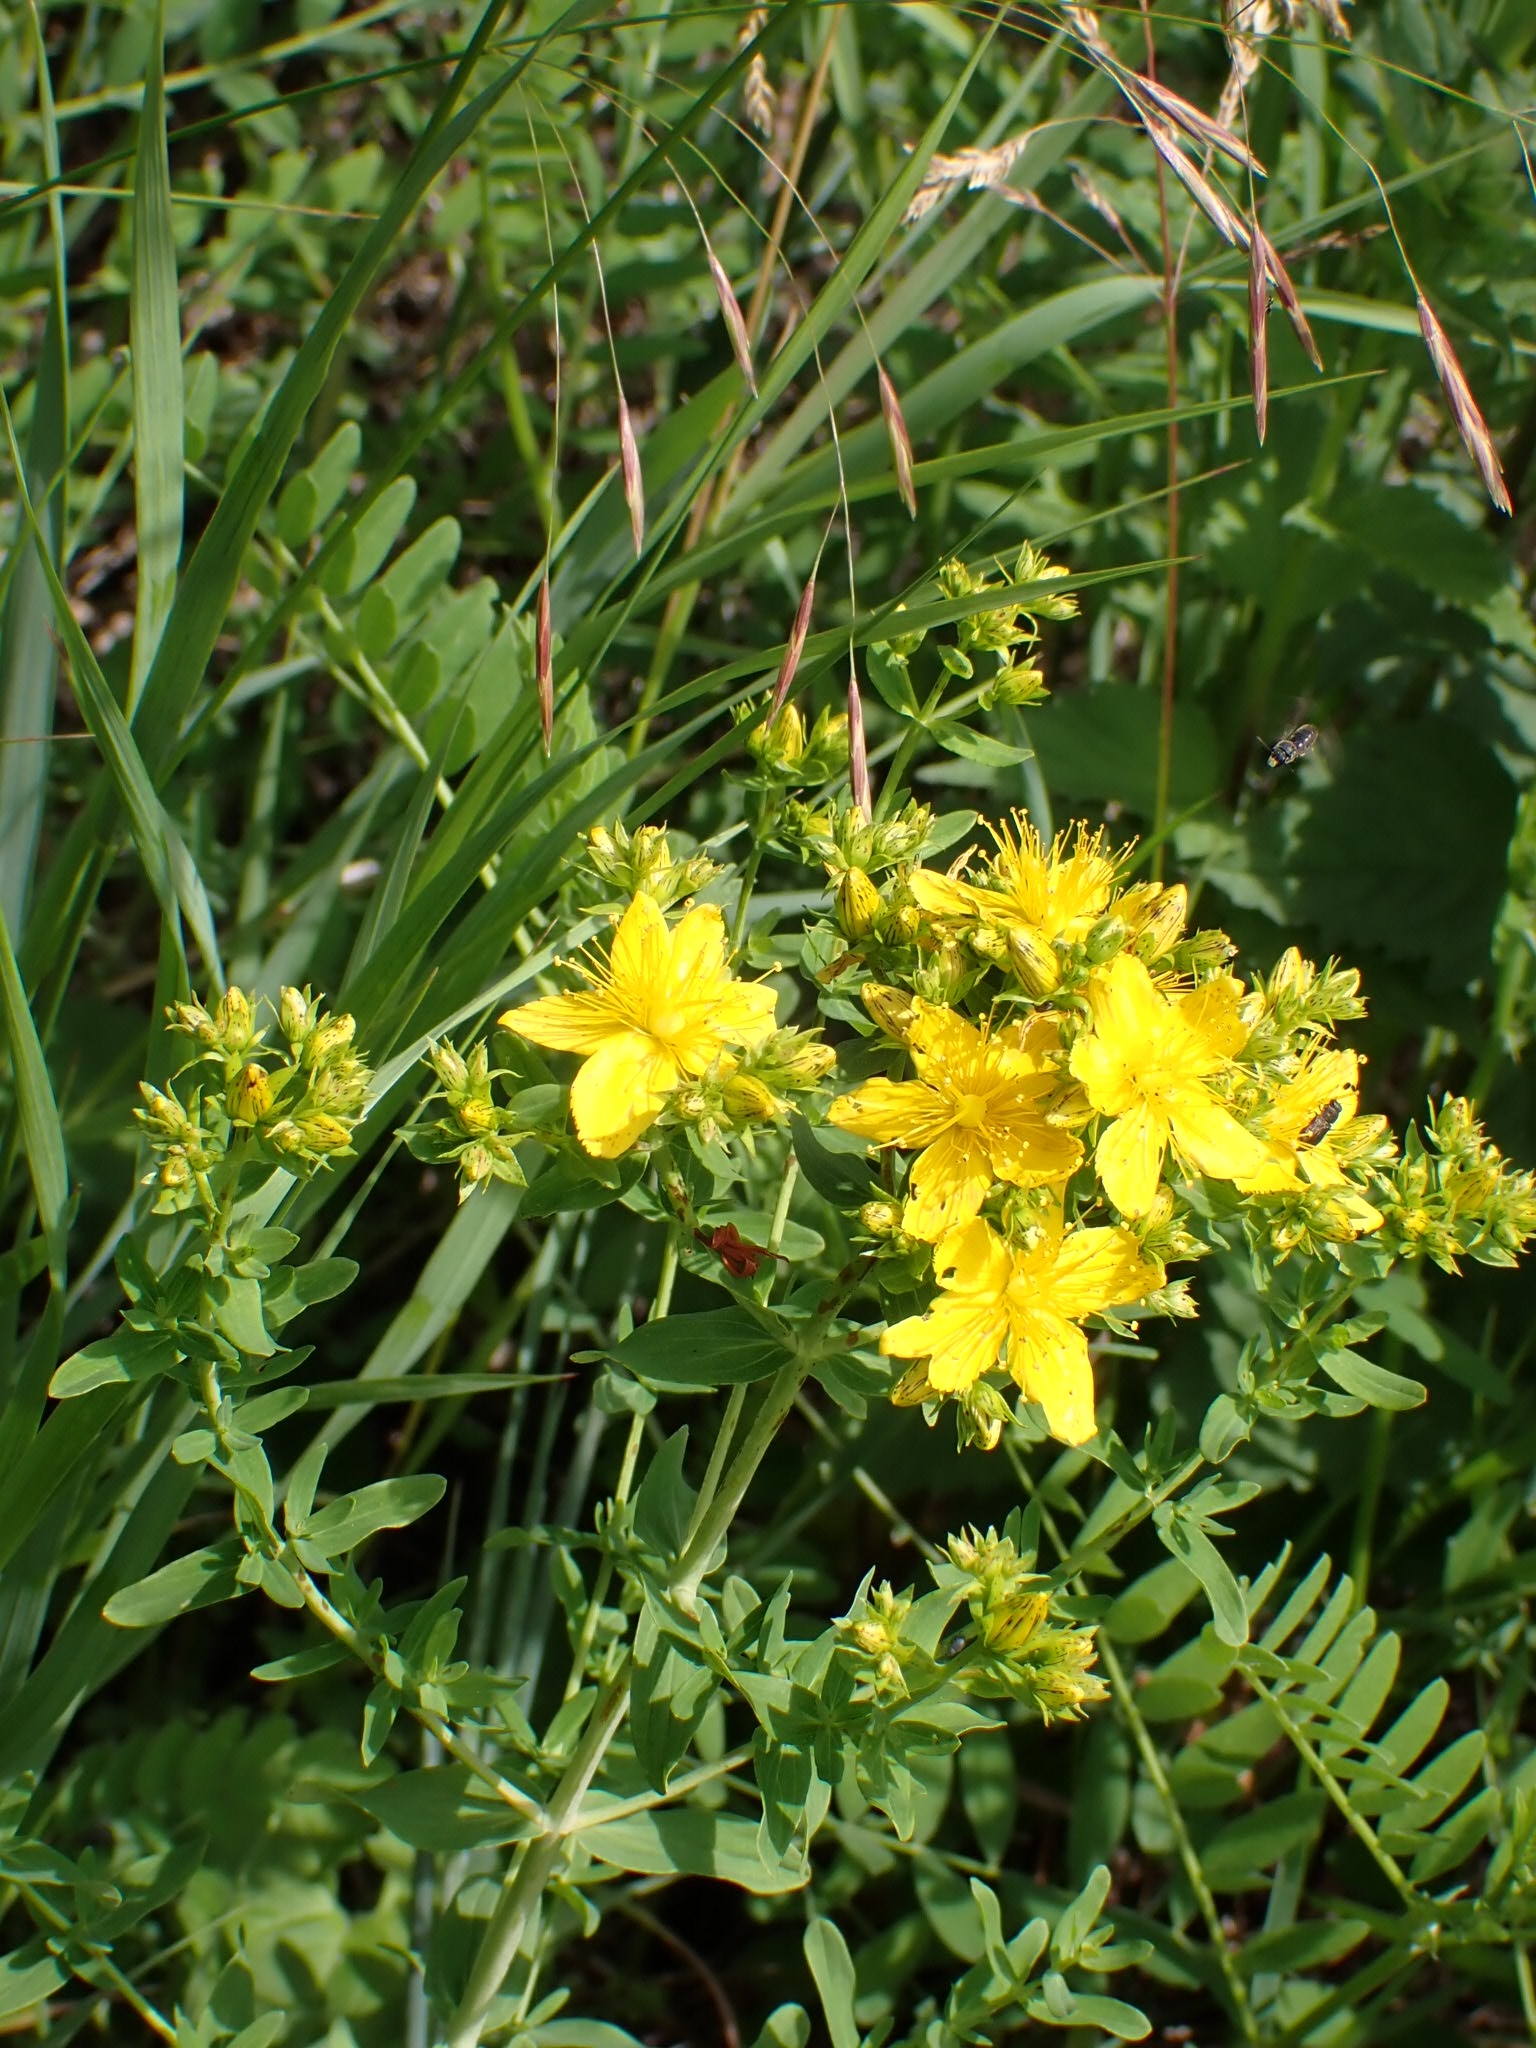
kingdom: Plantae
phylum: Tracheophyta
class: Magnoliopsida
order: Malpighiales
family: Hypericaceae
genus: Hypericum
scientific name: Hypericum perforatum
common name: Common st. johnswort
